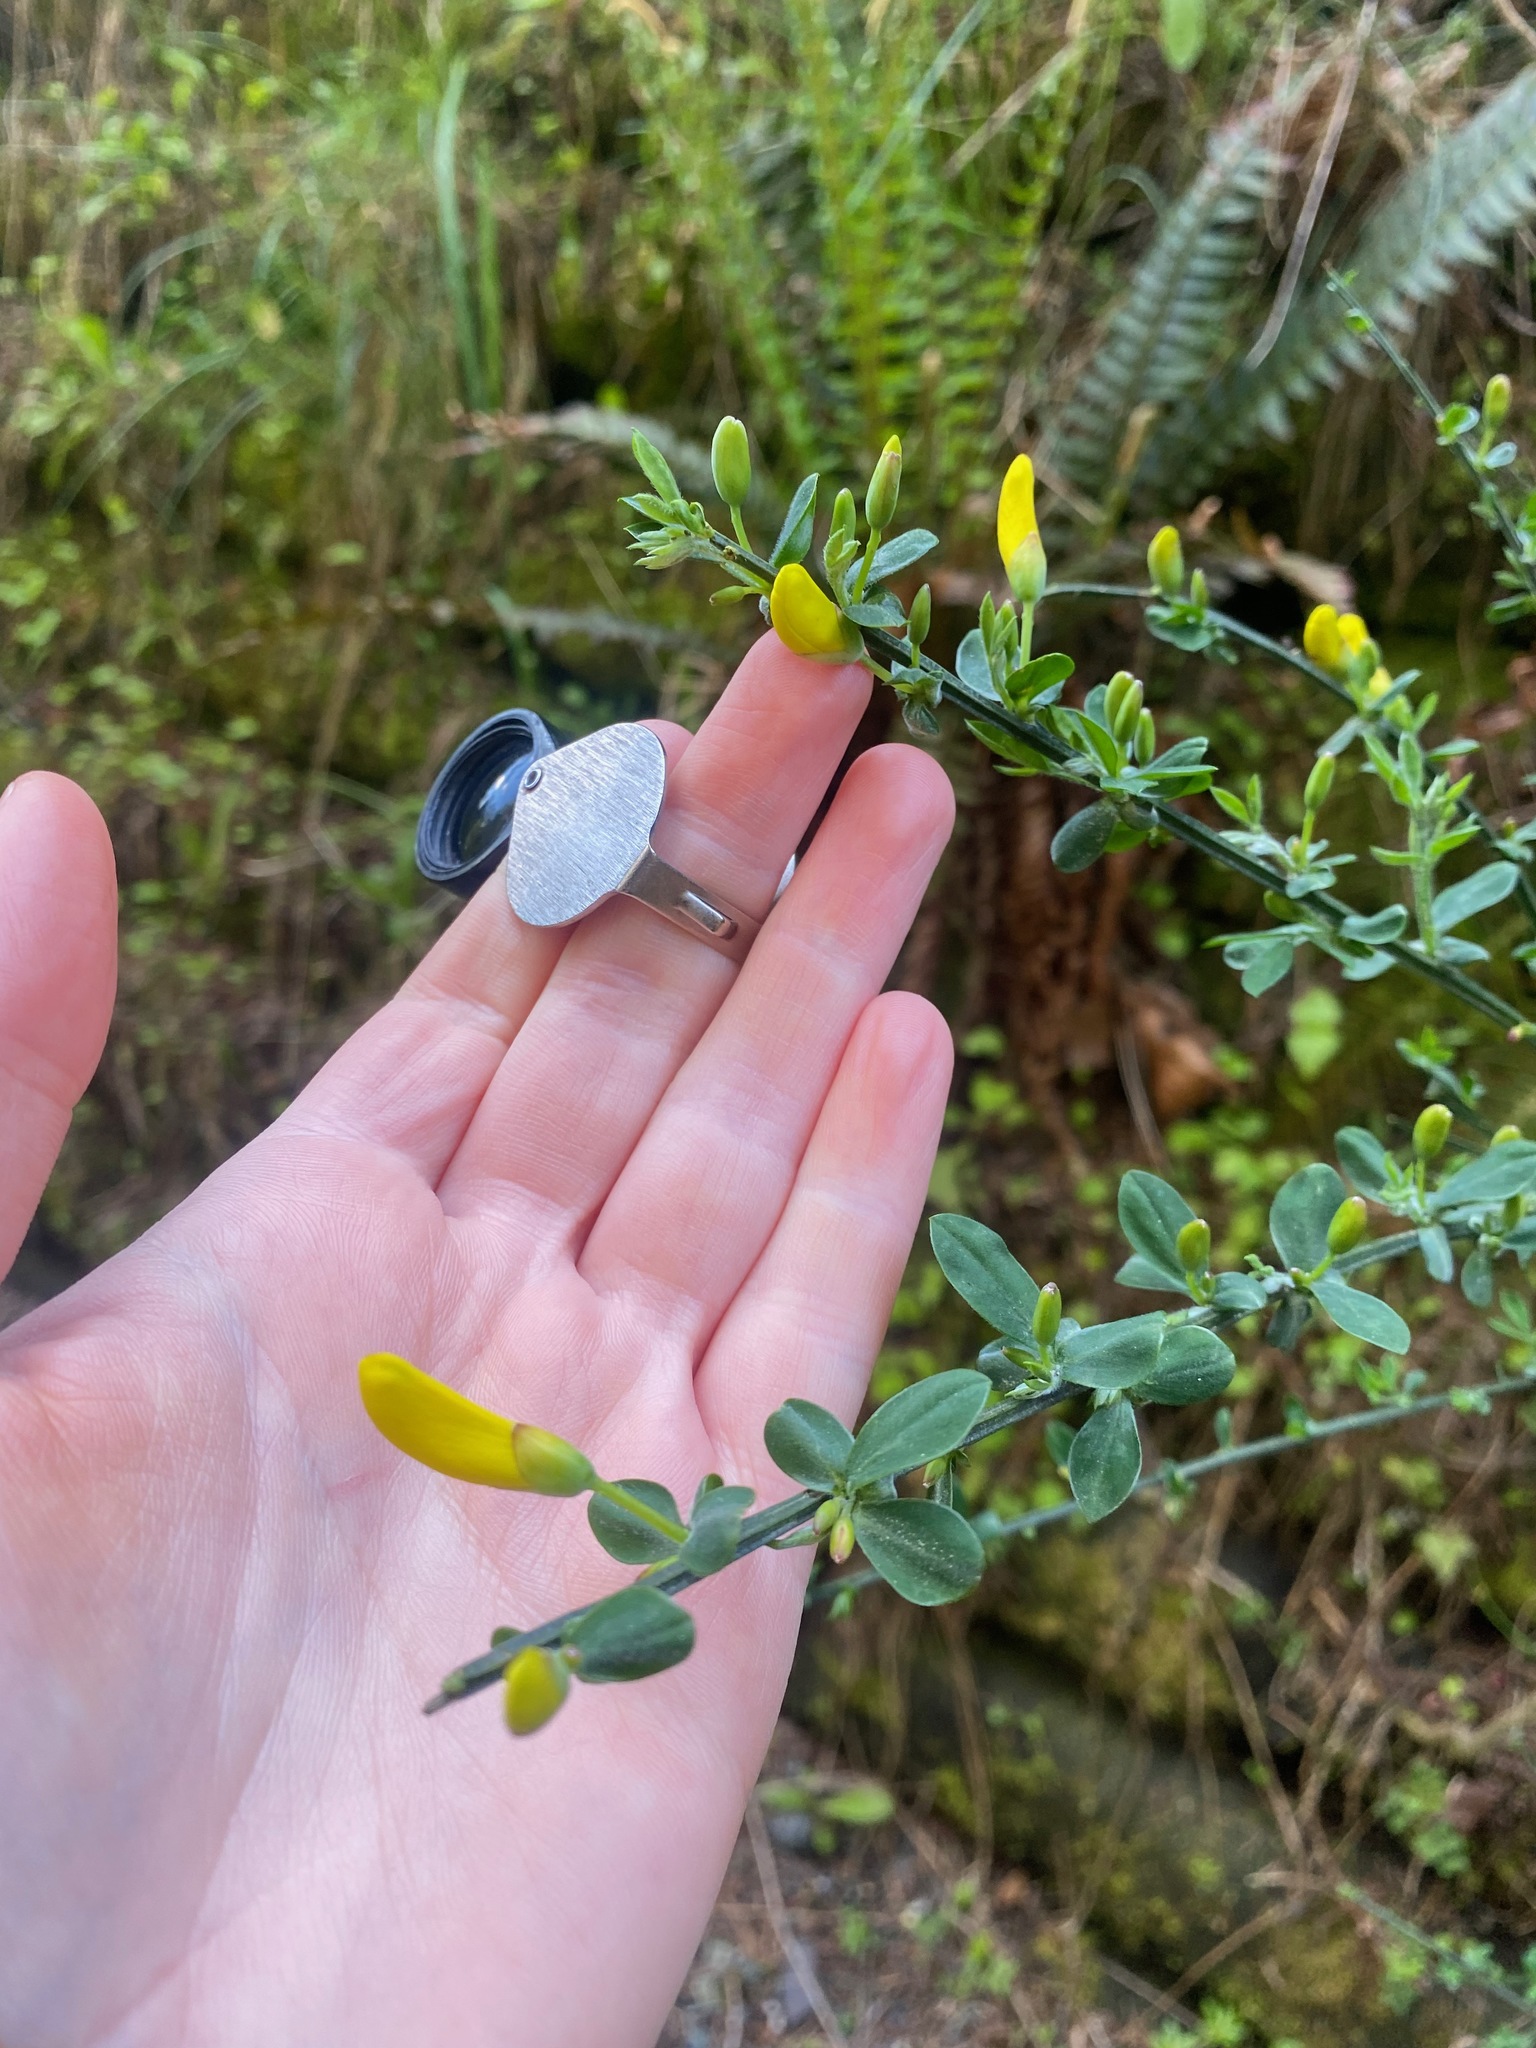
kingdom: Plantae
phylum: Tracheophyta
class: Magnoliopsida
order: Fabales
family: Fabaceae
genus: Cytisus
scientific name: Cytisus scoparius
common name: Scotch broom
